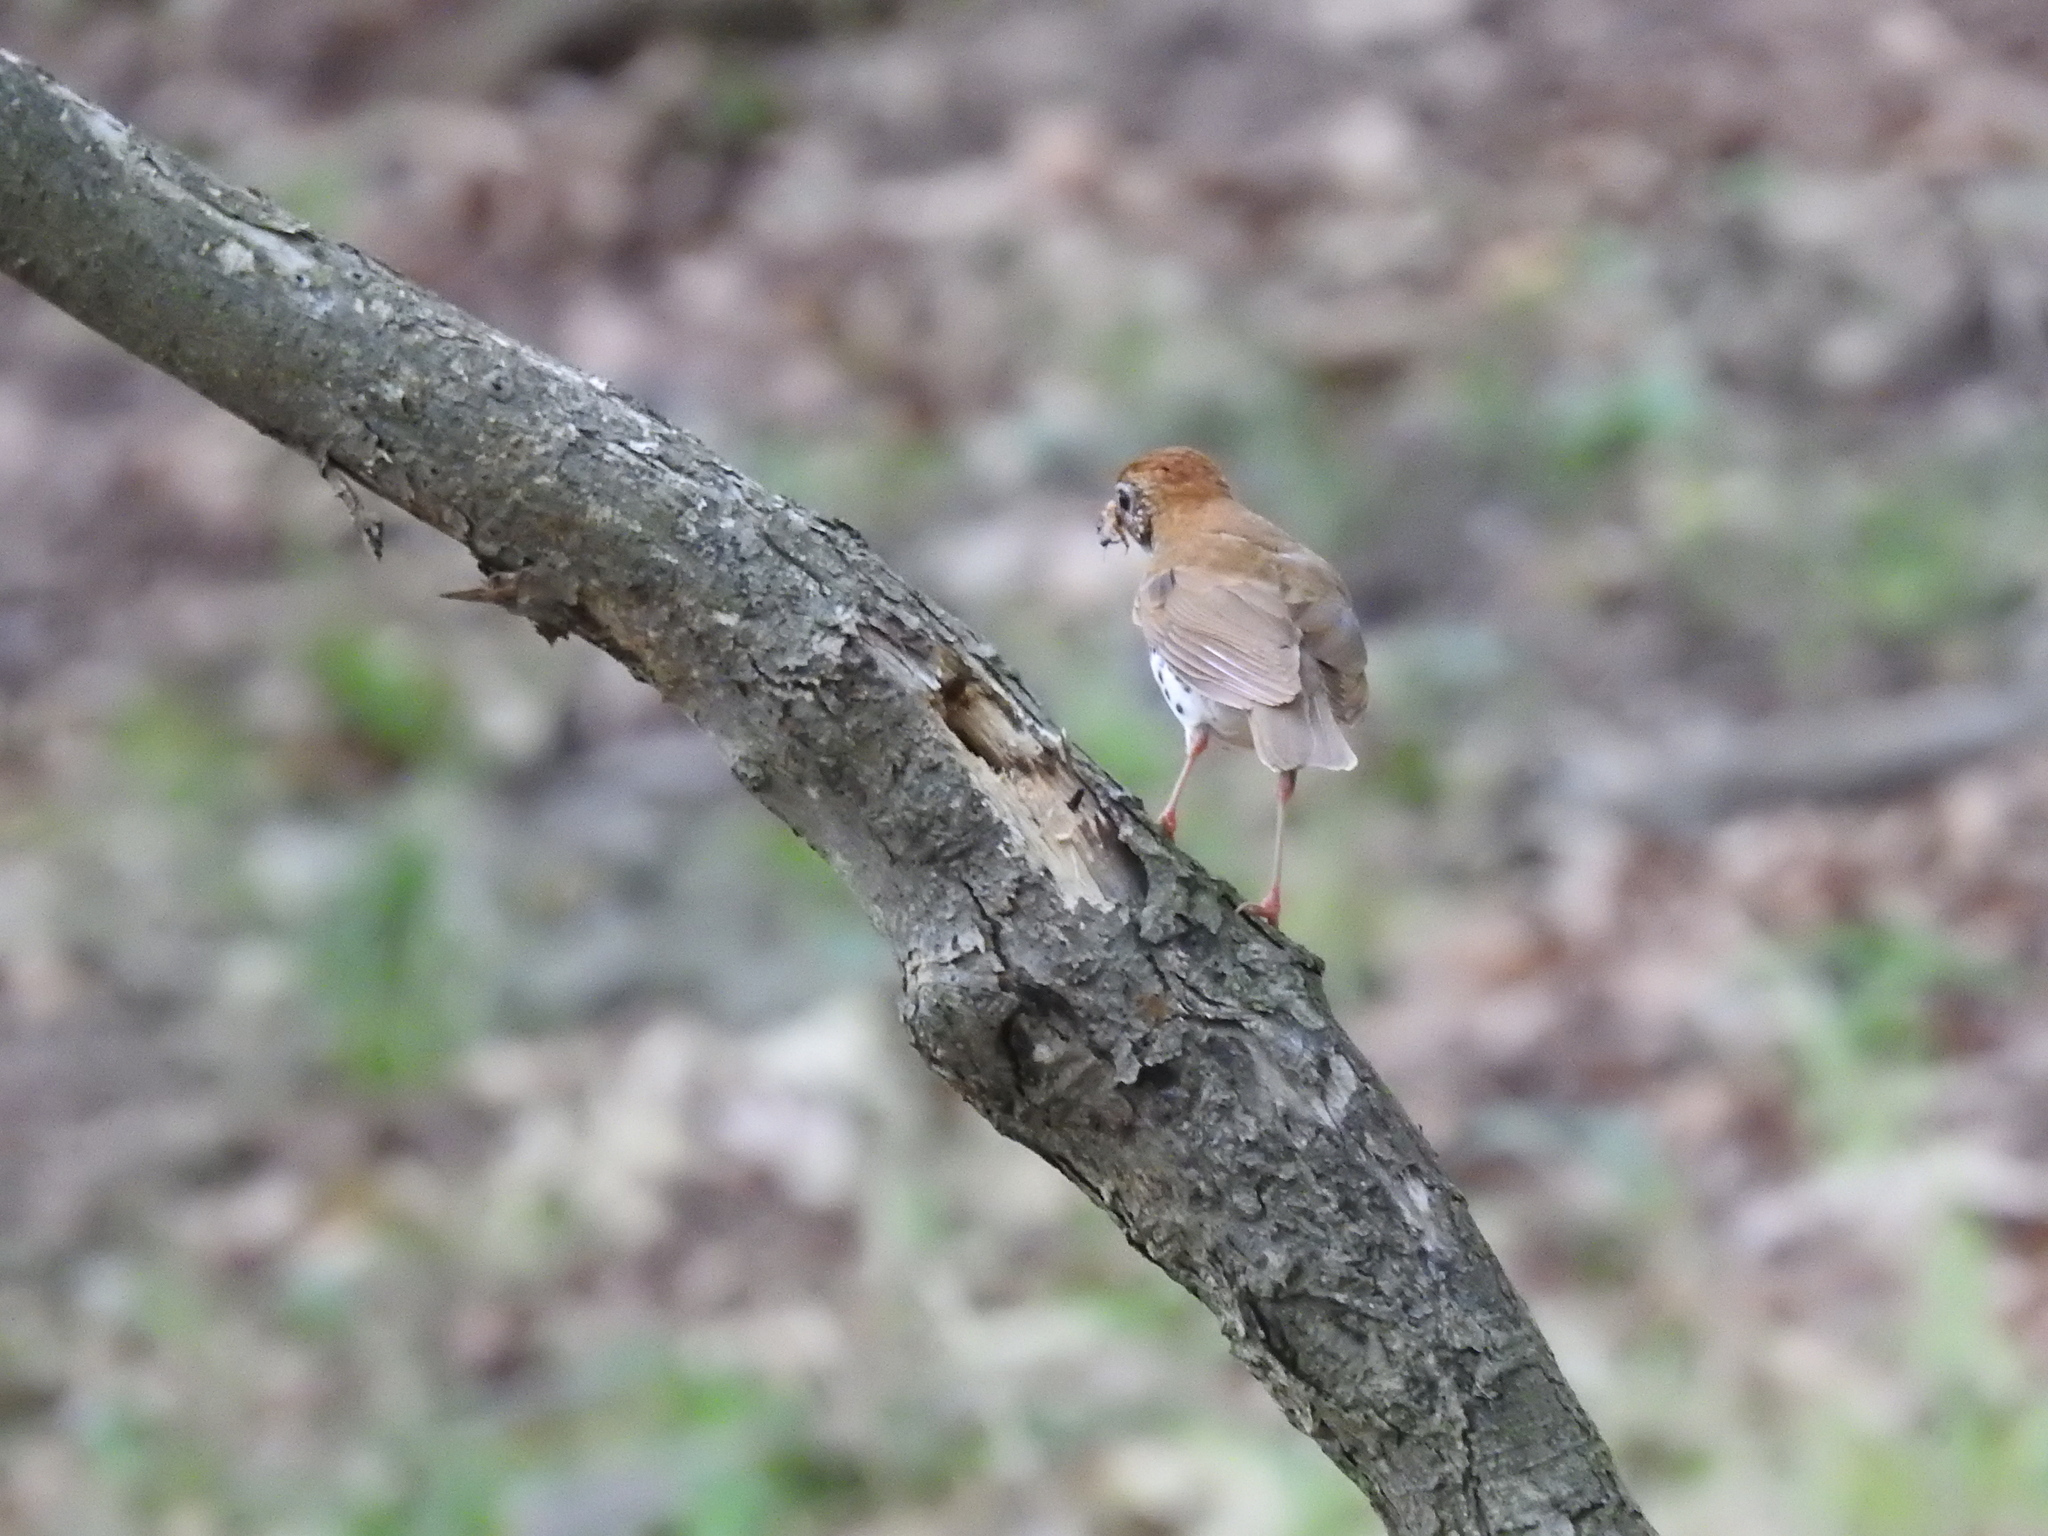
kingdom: Animalia
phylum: Chordata
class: Aves
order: Passeriformes
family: Turdidae
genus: Hylocichla
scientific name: Hylocichla mustelina
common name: Wood thrush
